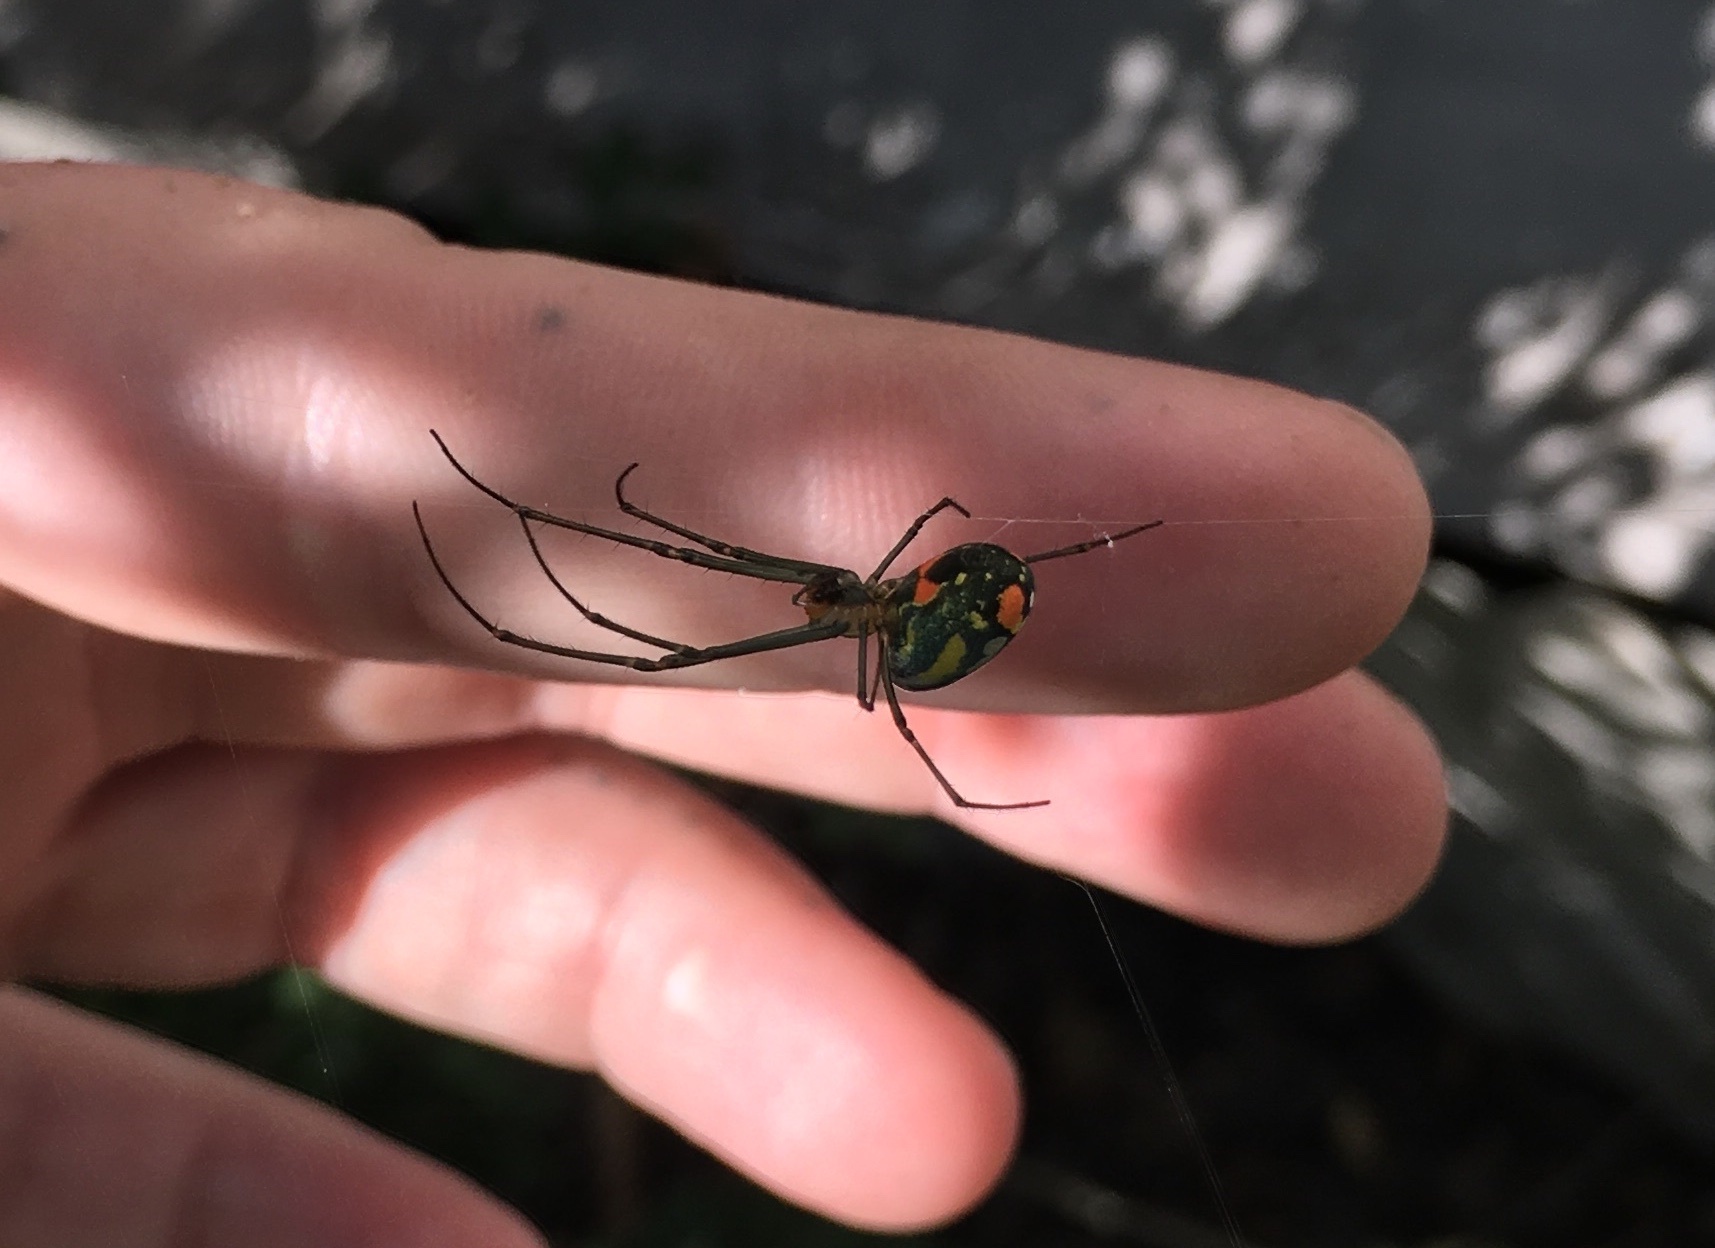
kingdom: Animalia
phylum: Arthropoda
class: Arachnida
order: Araneae
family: Tetragnathidae
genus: Leucauge
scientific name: Leucauge argyrobapta
